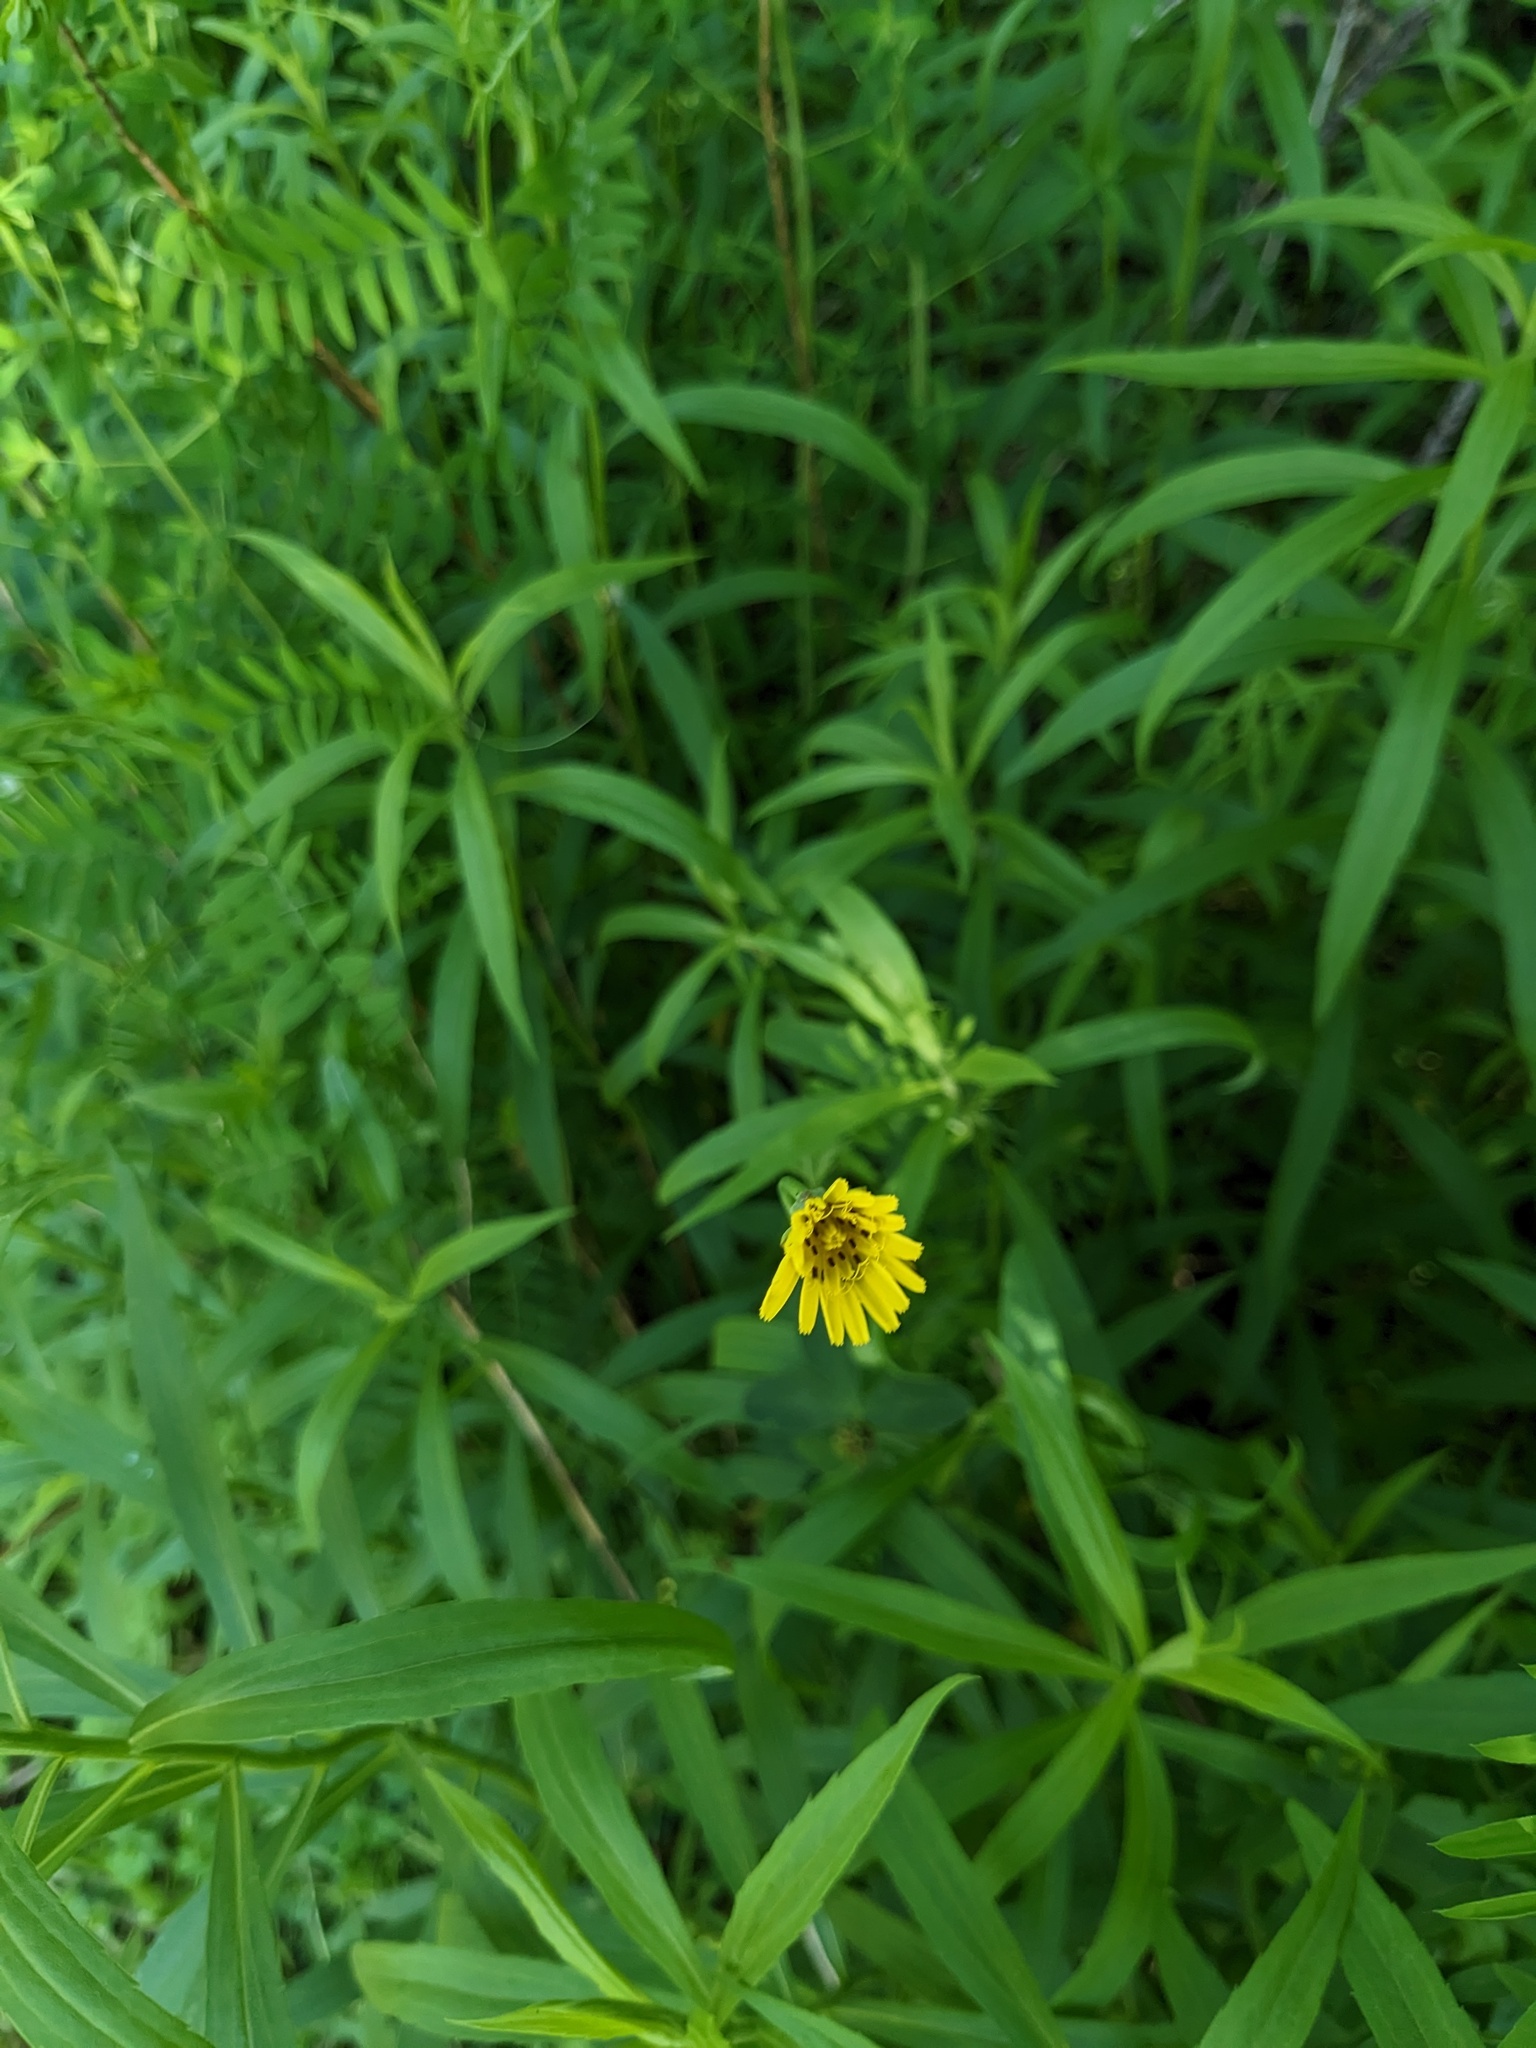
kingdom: Plantae
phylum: Tracheophyta
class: Magnoliopsida
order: Asterales
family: Asteraceae
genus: Tragopogon
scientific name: Tragopogon pratensis
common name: Goat's-beard
